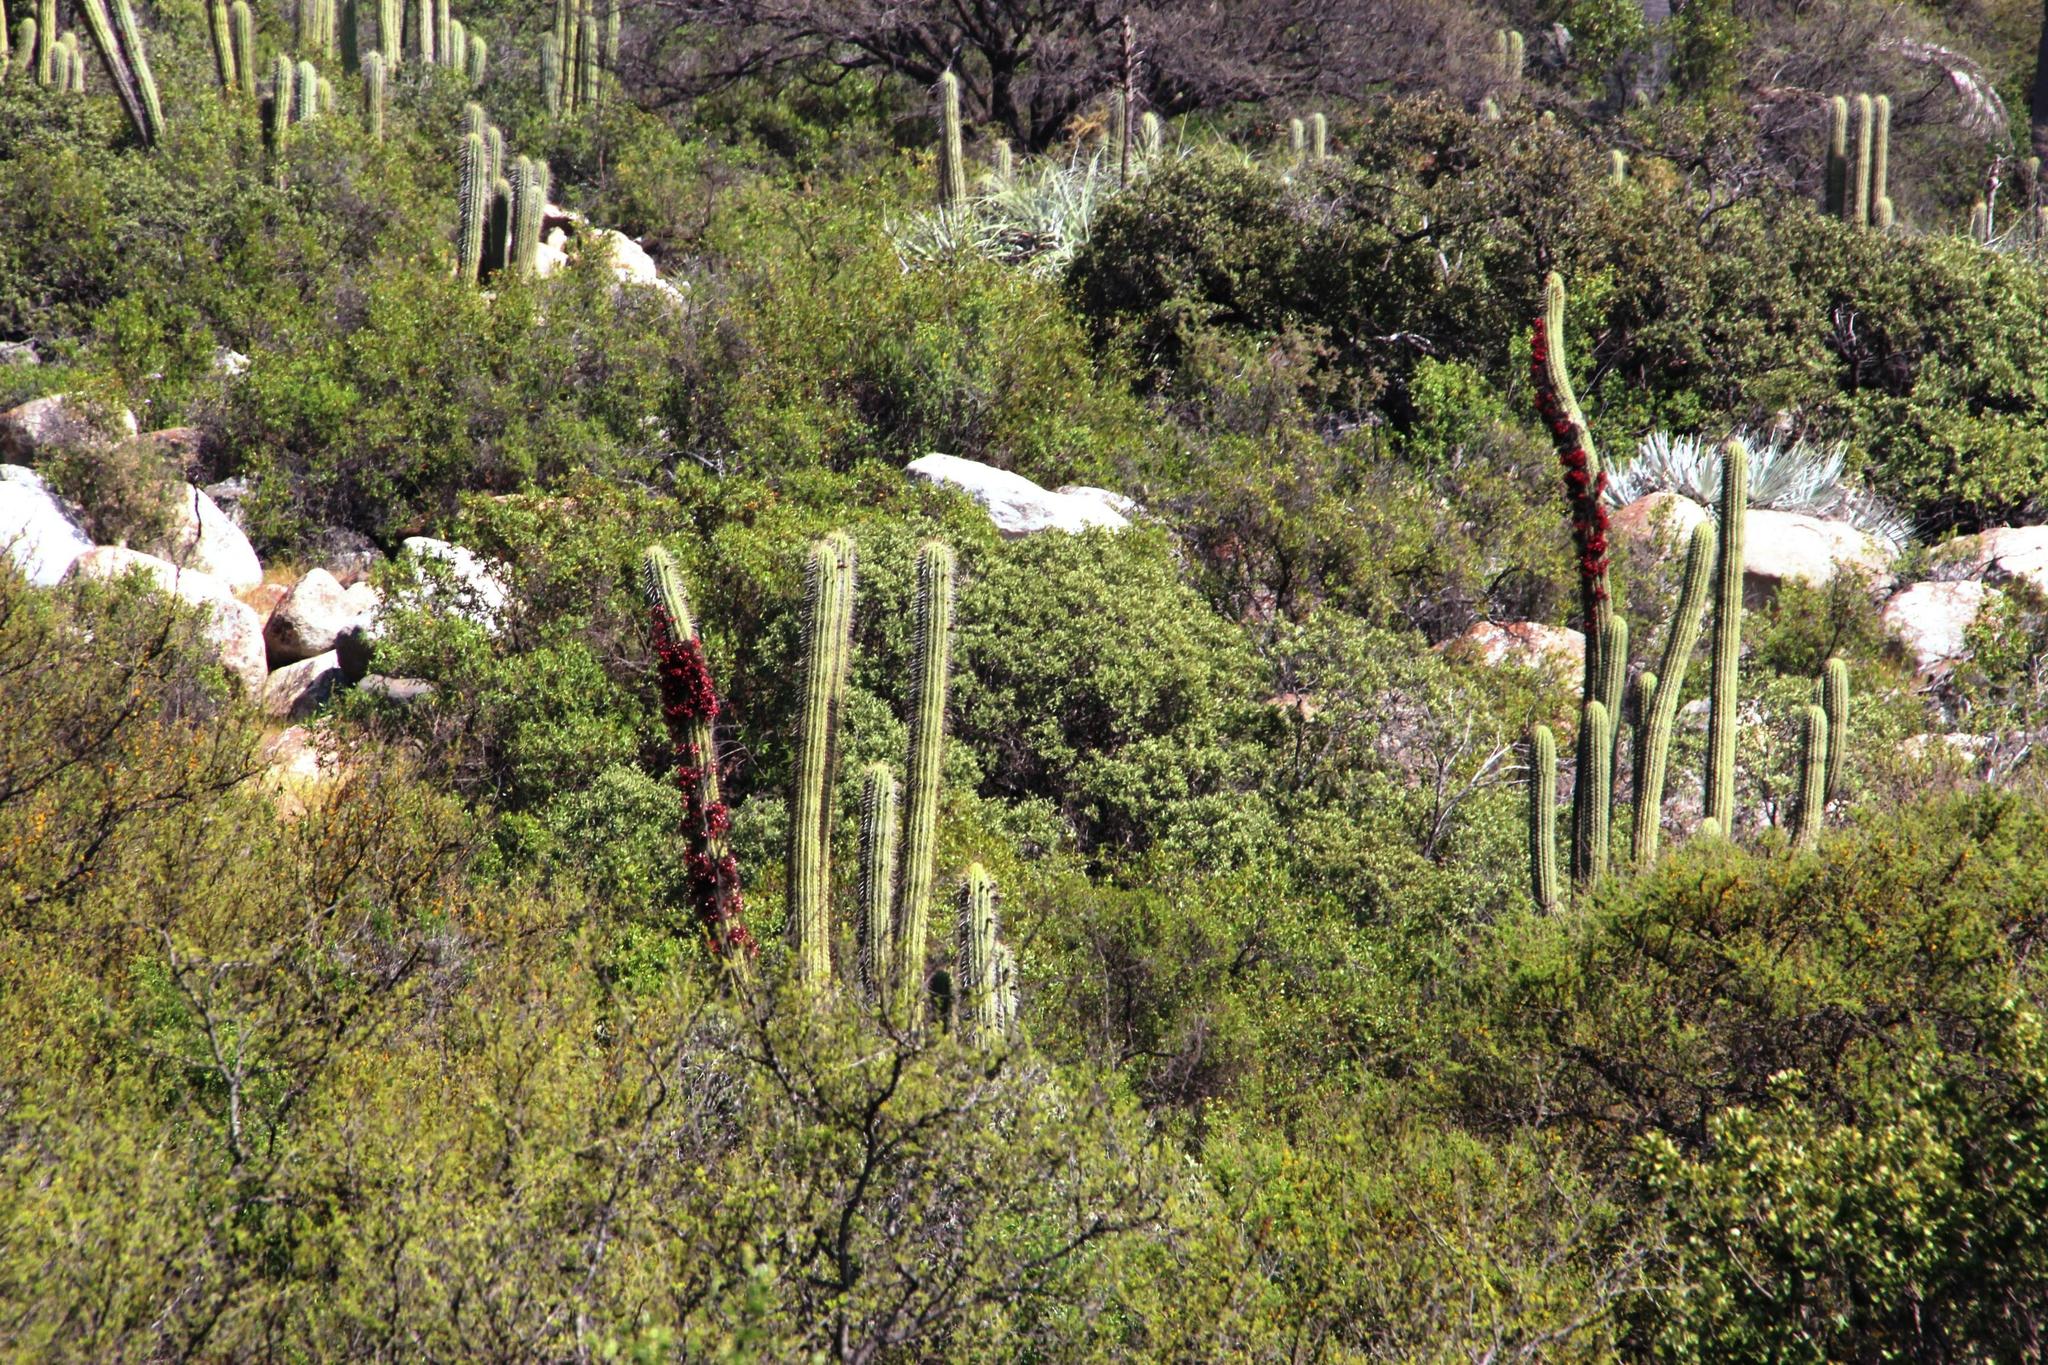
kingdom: Plantae
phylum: Tracheophyta
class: Magnoliopsida
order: Caryophyllales
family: Cactaceae
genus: Leucostele
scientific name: Leucostele chiloensis
